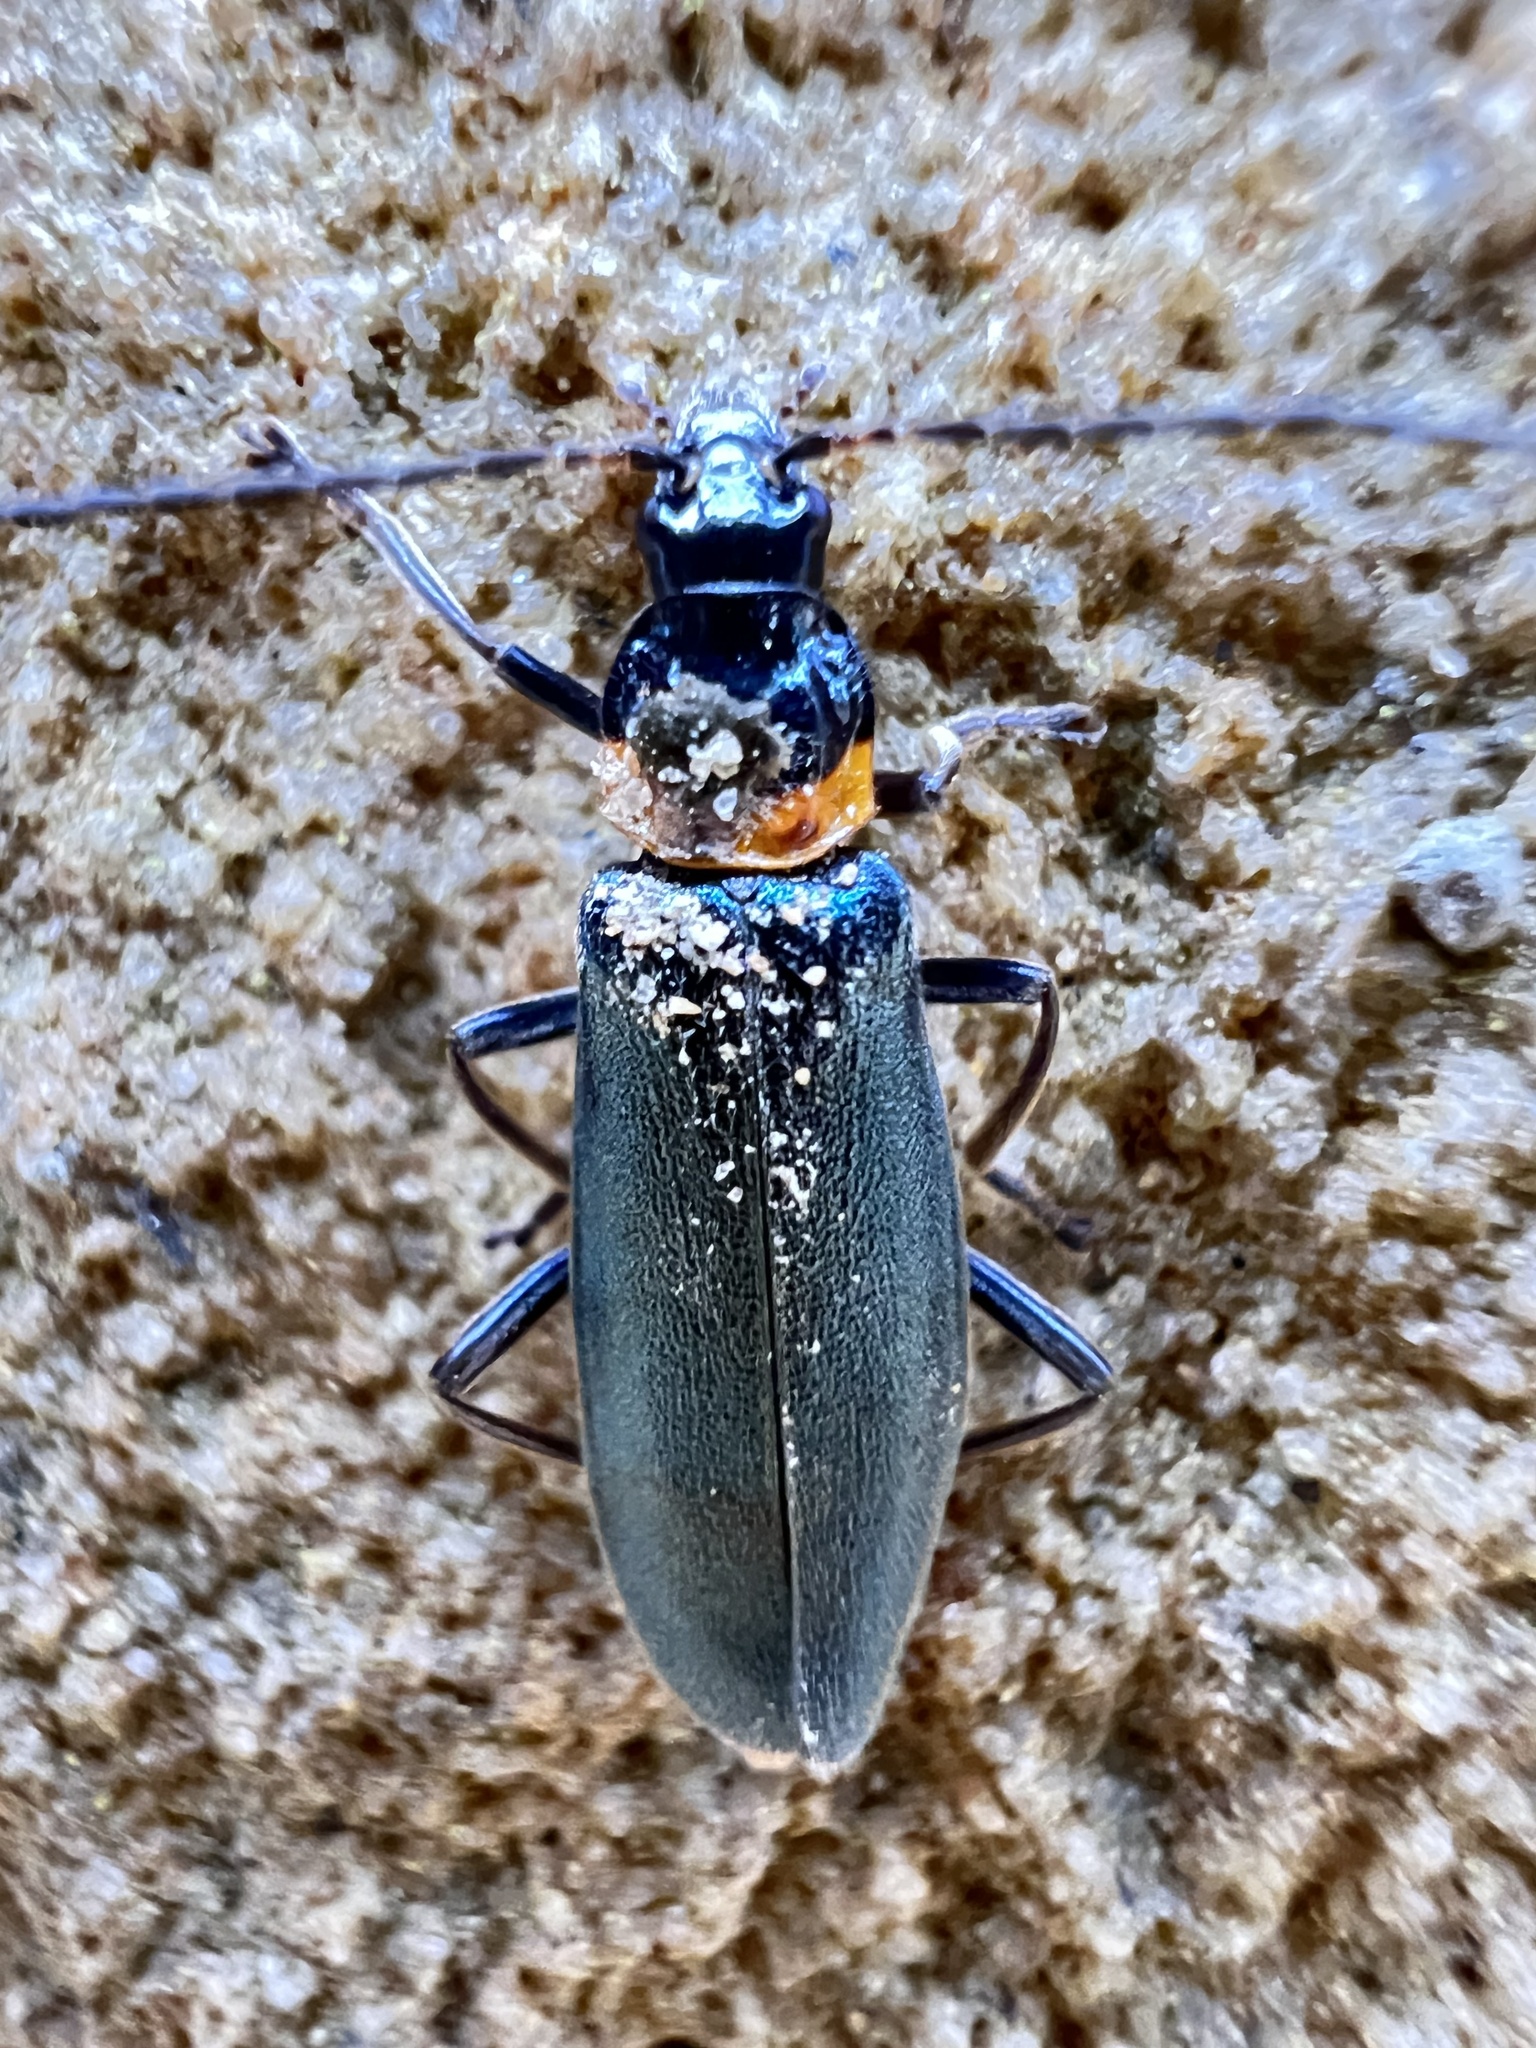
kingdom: Animalia
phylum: Arthropoda
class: Insecta
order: Coleoptera
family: Cantharidae
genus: Chauliognathus
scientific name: Chauliognathus
